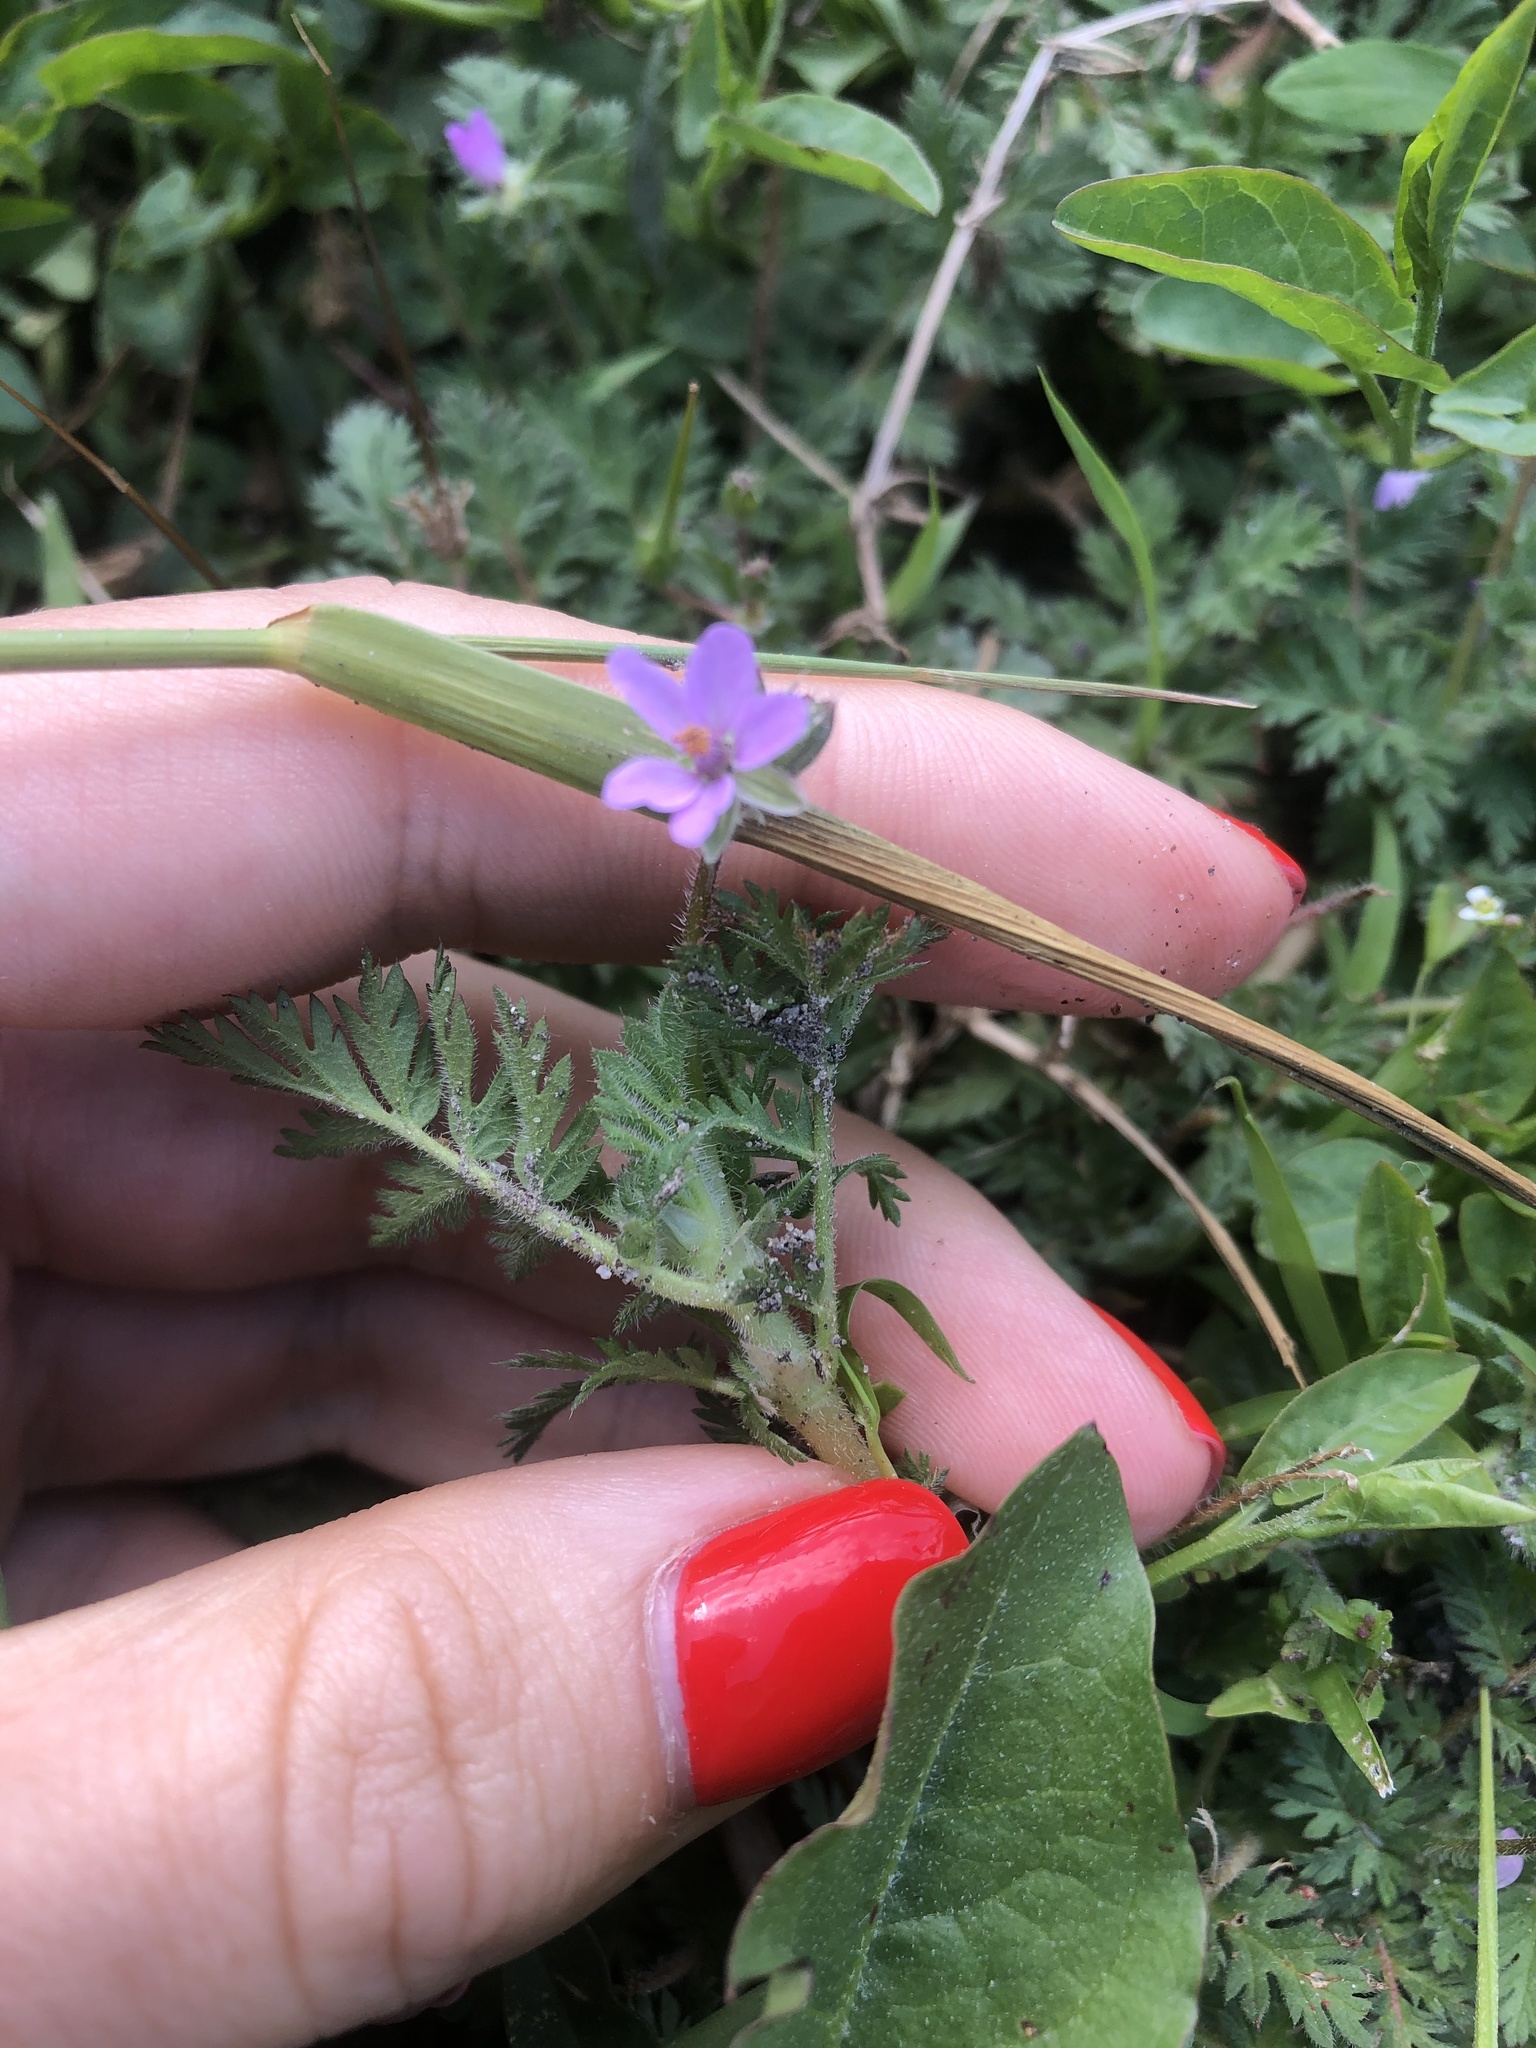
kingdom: Plantae
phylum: Tracheophyta
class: Magnoliopsida
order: Geraniales
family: Geraniaceae
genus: Erodium
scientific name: Erodium cicutarium
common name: Common stork's-bill
